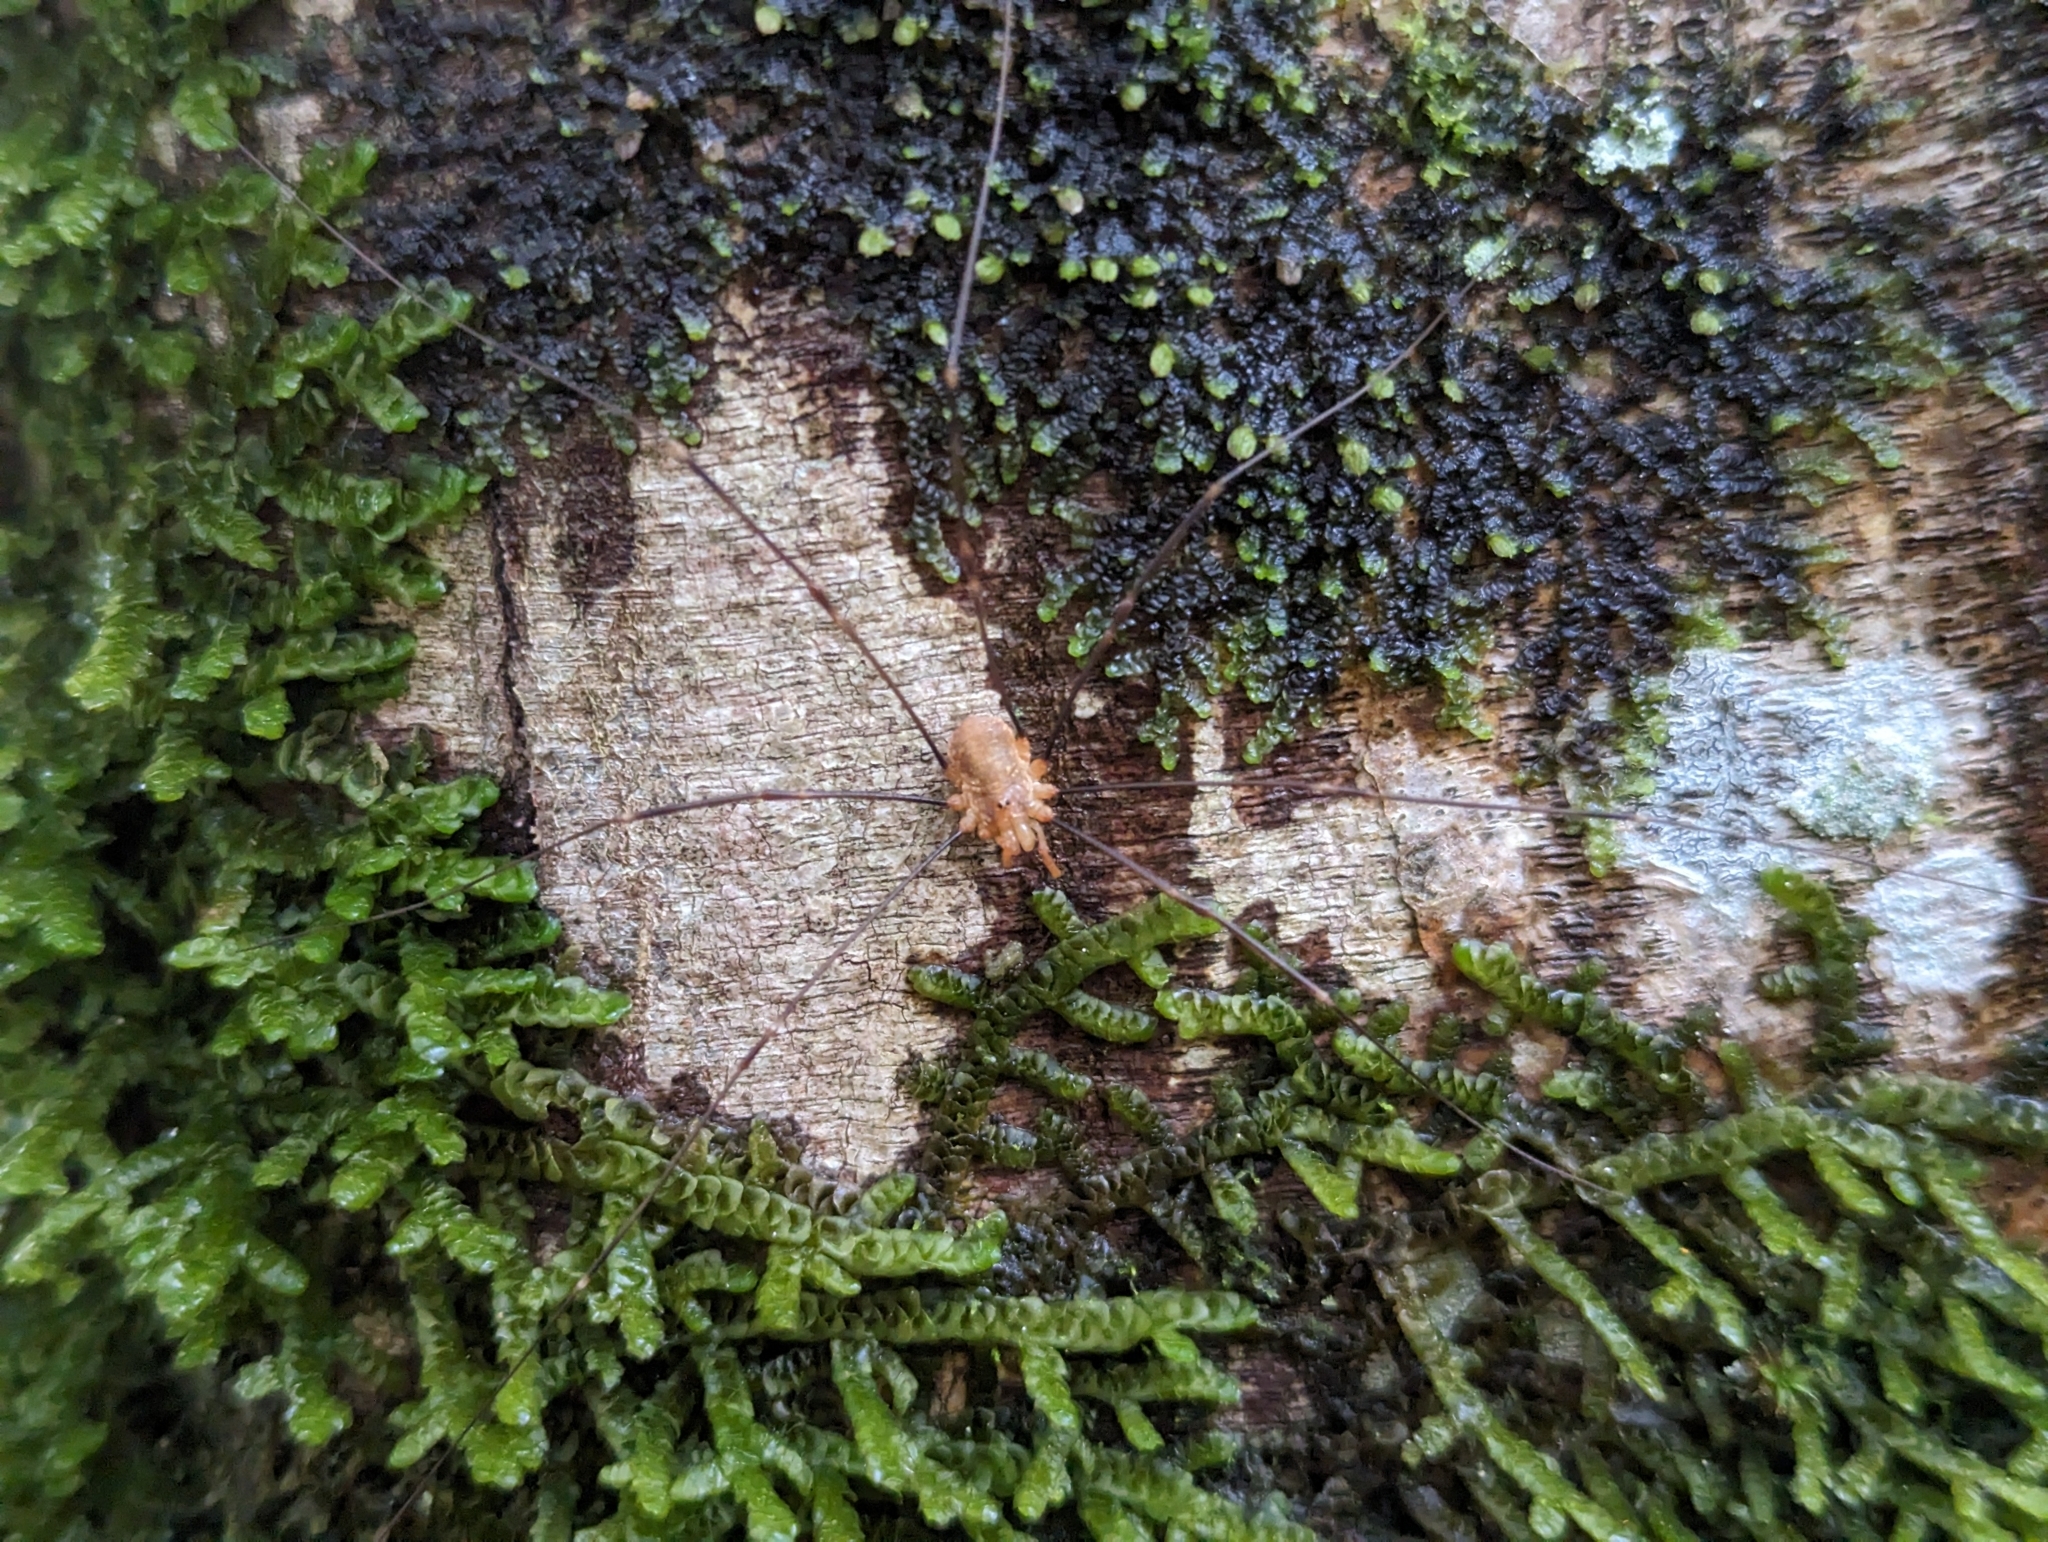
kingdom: Animalia
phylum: Arthropoda
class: Arachnida
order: Opiliones
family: Phalangiidae
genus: Opilio
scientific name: Opilio canestrinii
